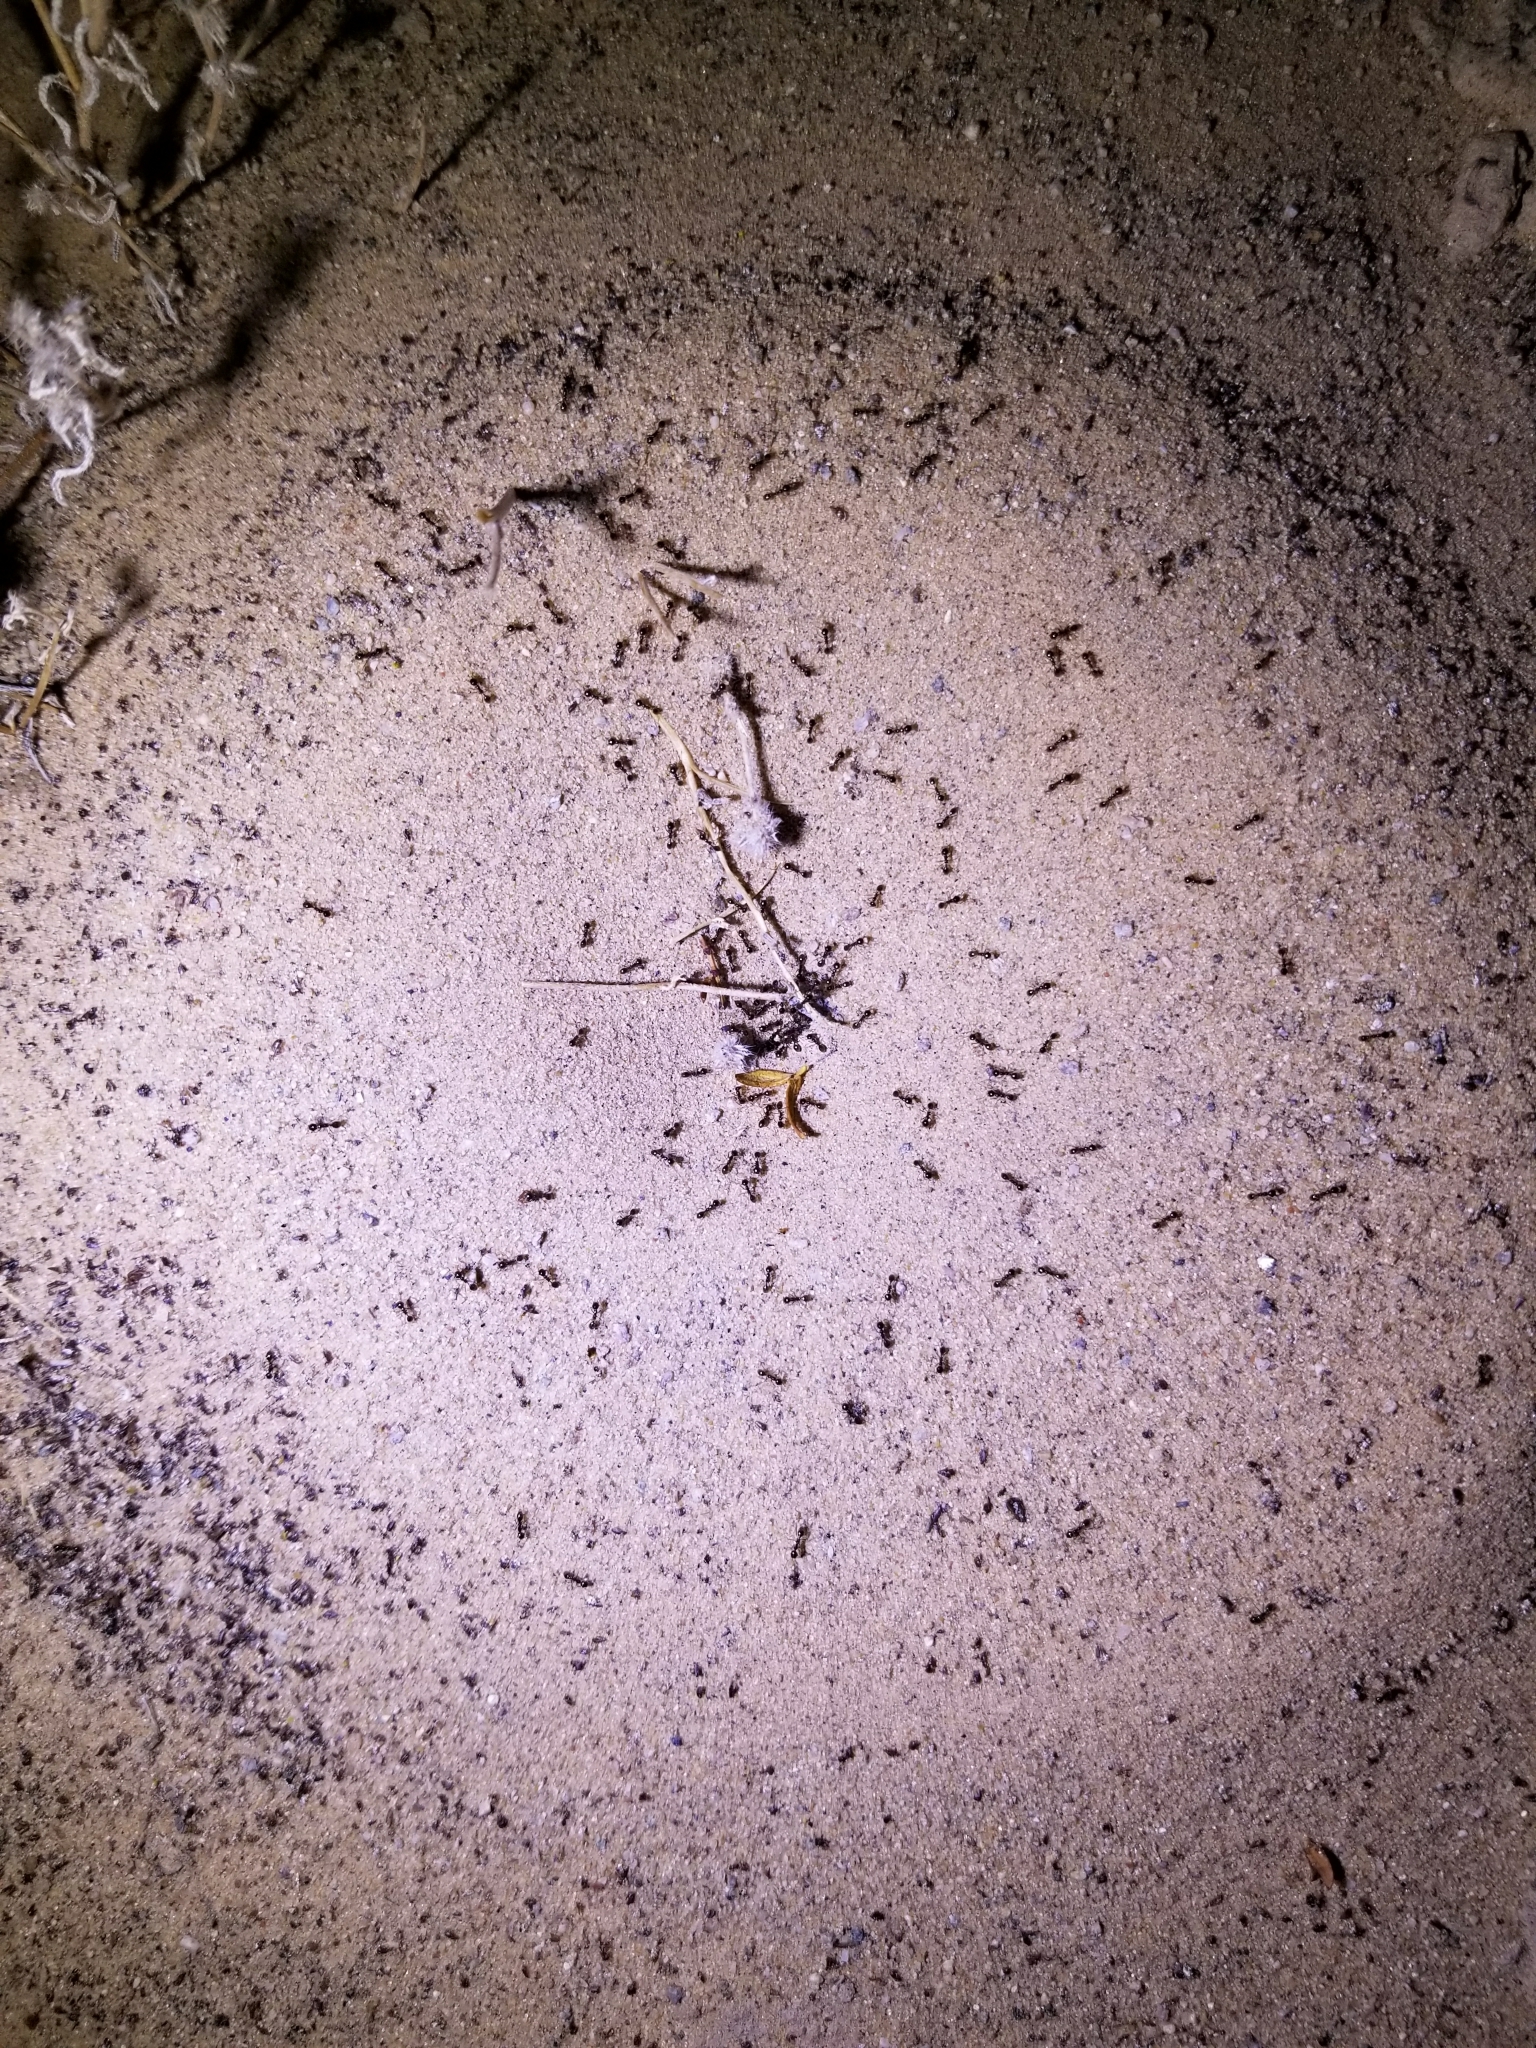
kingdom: Animalia
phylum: Arthropoda
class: Insecta
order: Hymenoptera
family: Formicidae
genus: Messor
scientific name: Messor pergandei
